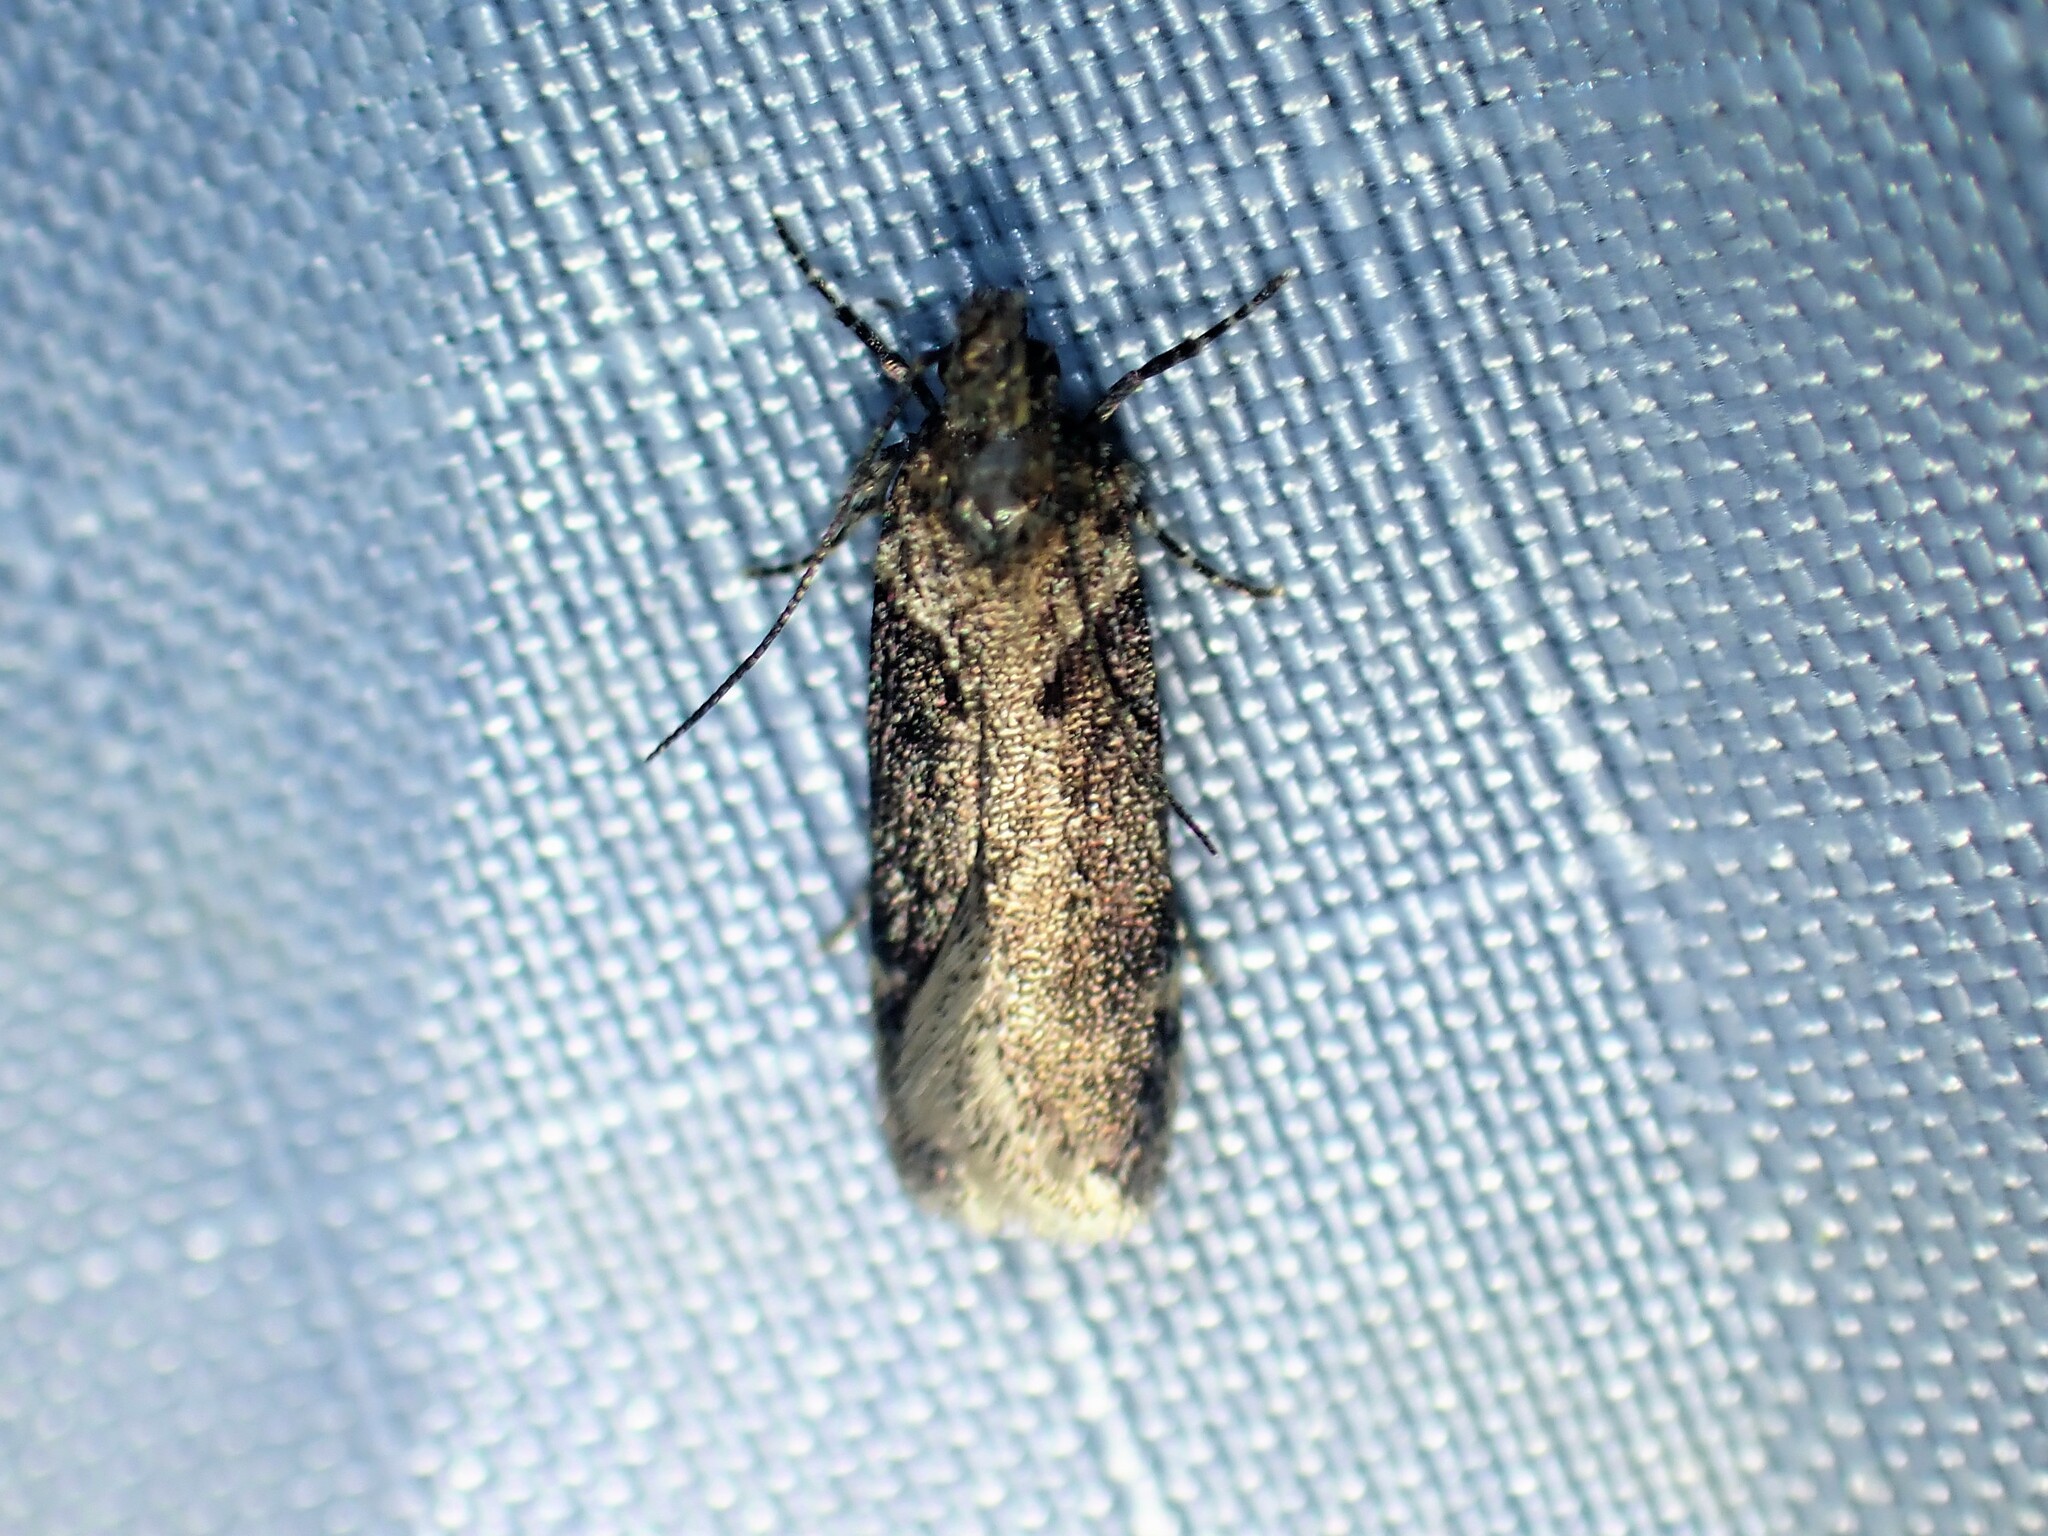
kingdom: Animalia
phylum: Arthropoda
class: Insecta
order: Lepidoptera
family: Gelechiidae
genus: Chionodes
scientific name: Chionodes mediofuscella
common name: Black-smudged chionodes moth
